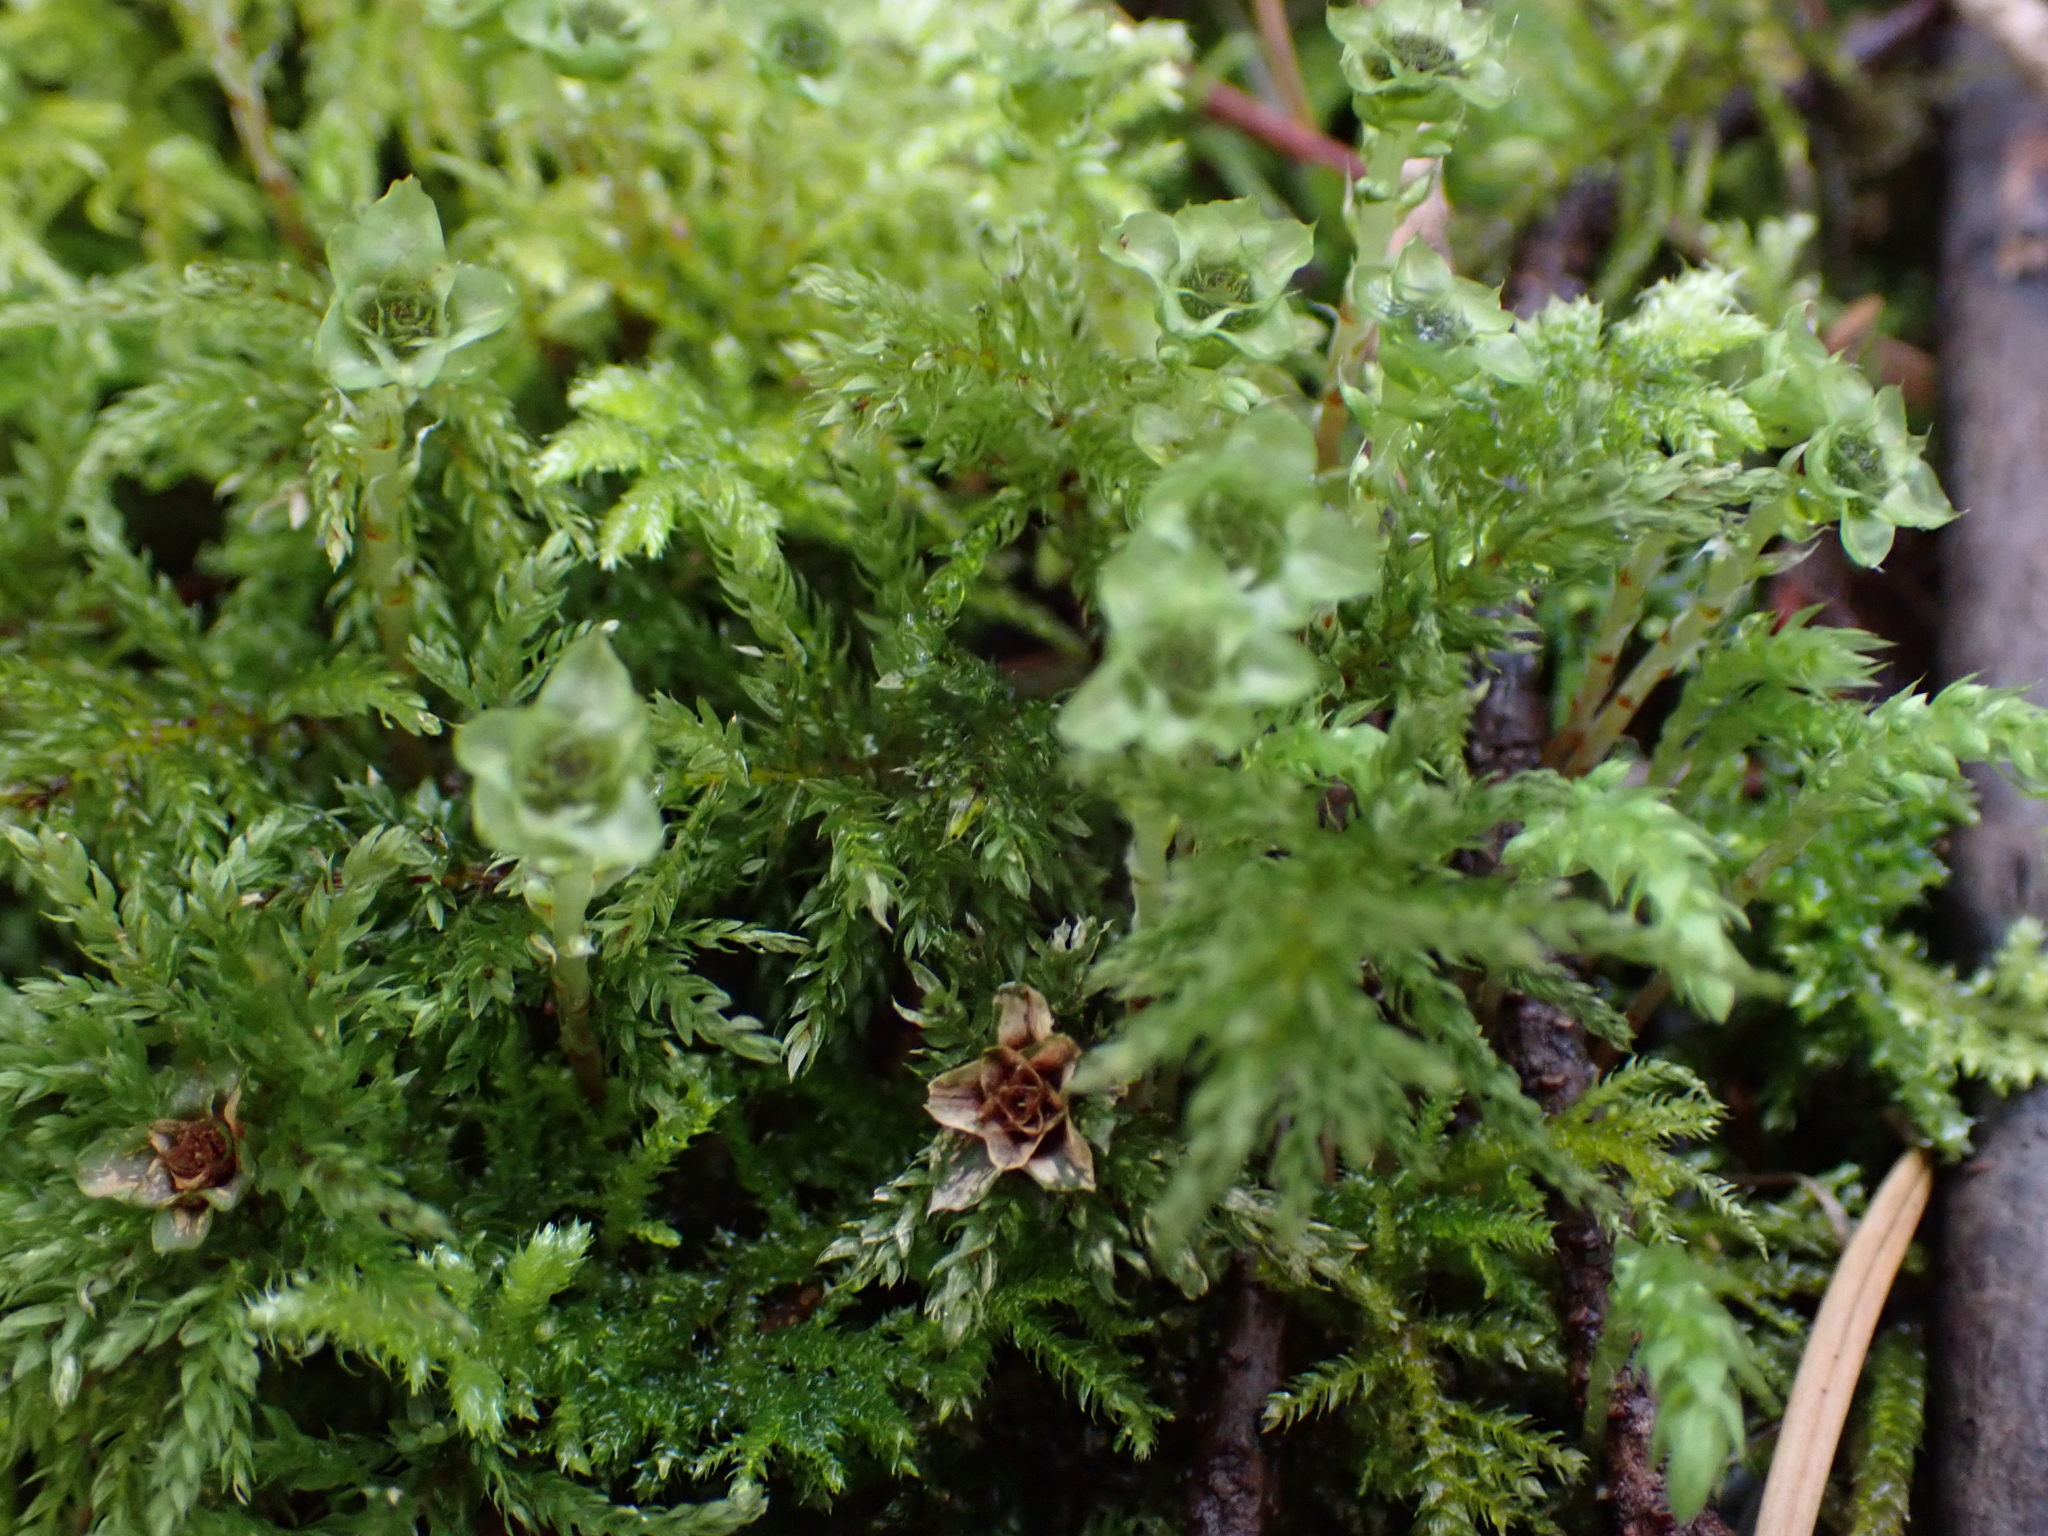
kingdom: Plantae
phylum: Bryophyta
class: Bryopsida
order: Bryales
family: Mniaceae
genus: Leucolepis
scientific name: Leucolepis acanthoneura
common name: Leucolepis umbrella moss
